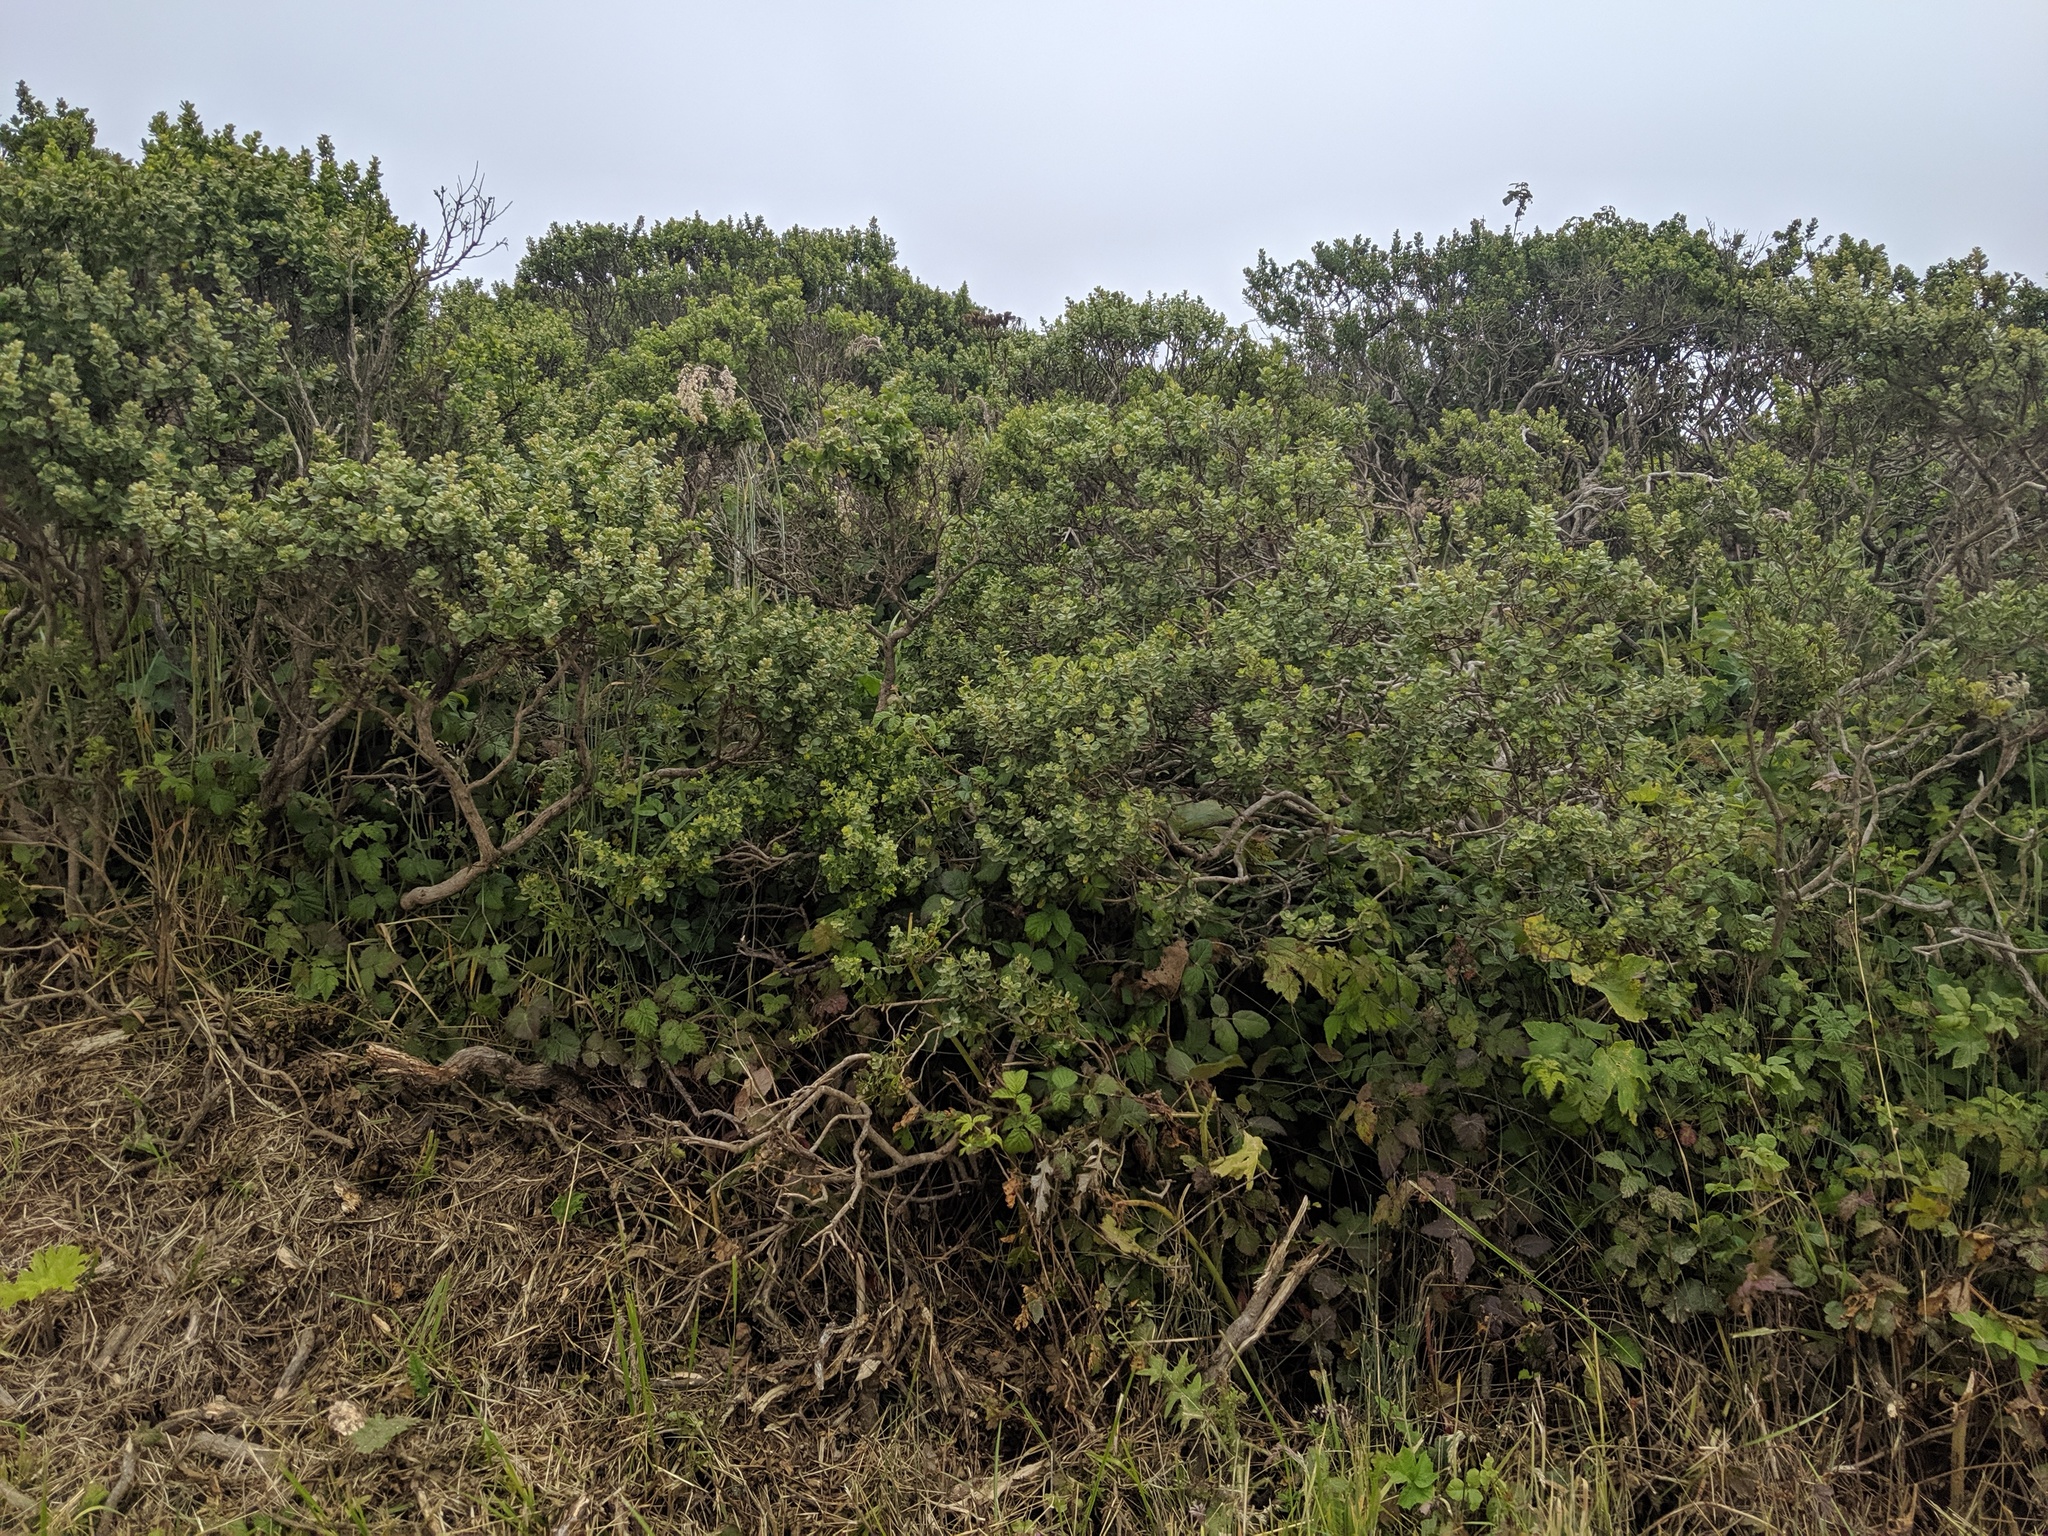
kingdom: Plantae
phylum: Tracheophyta
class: Magnoliopsida
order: Asterales
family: Asteraceae
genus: Baccharis
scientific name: Baccharis pilularis
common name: Coyotebrush
